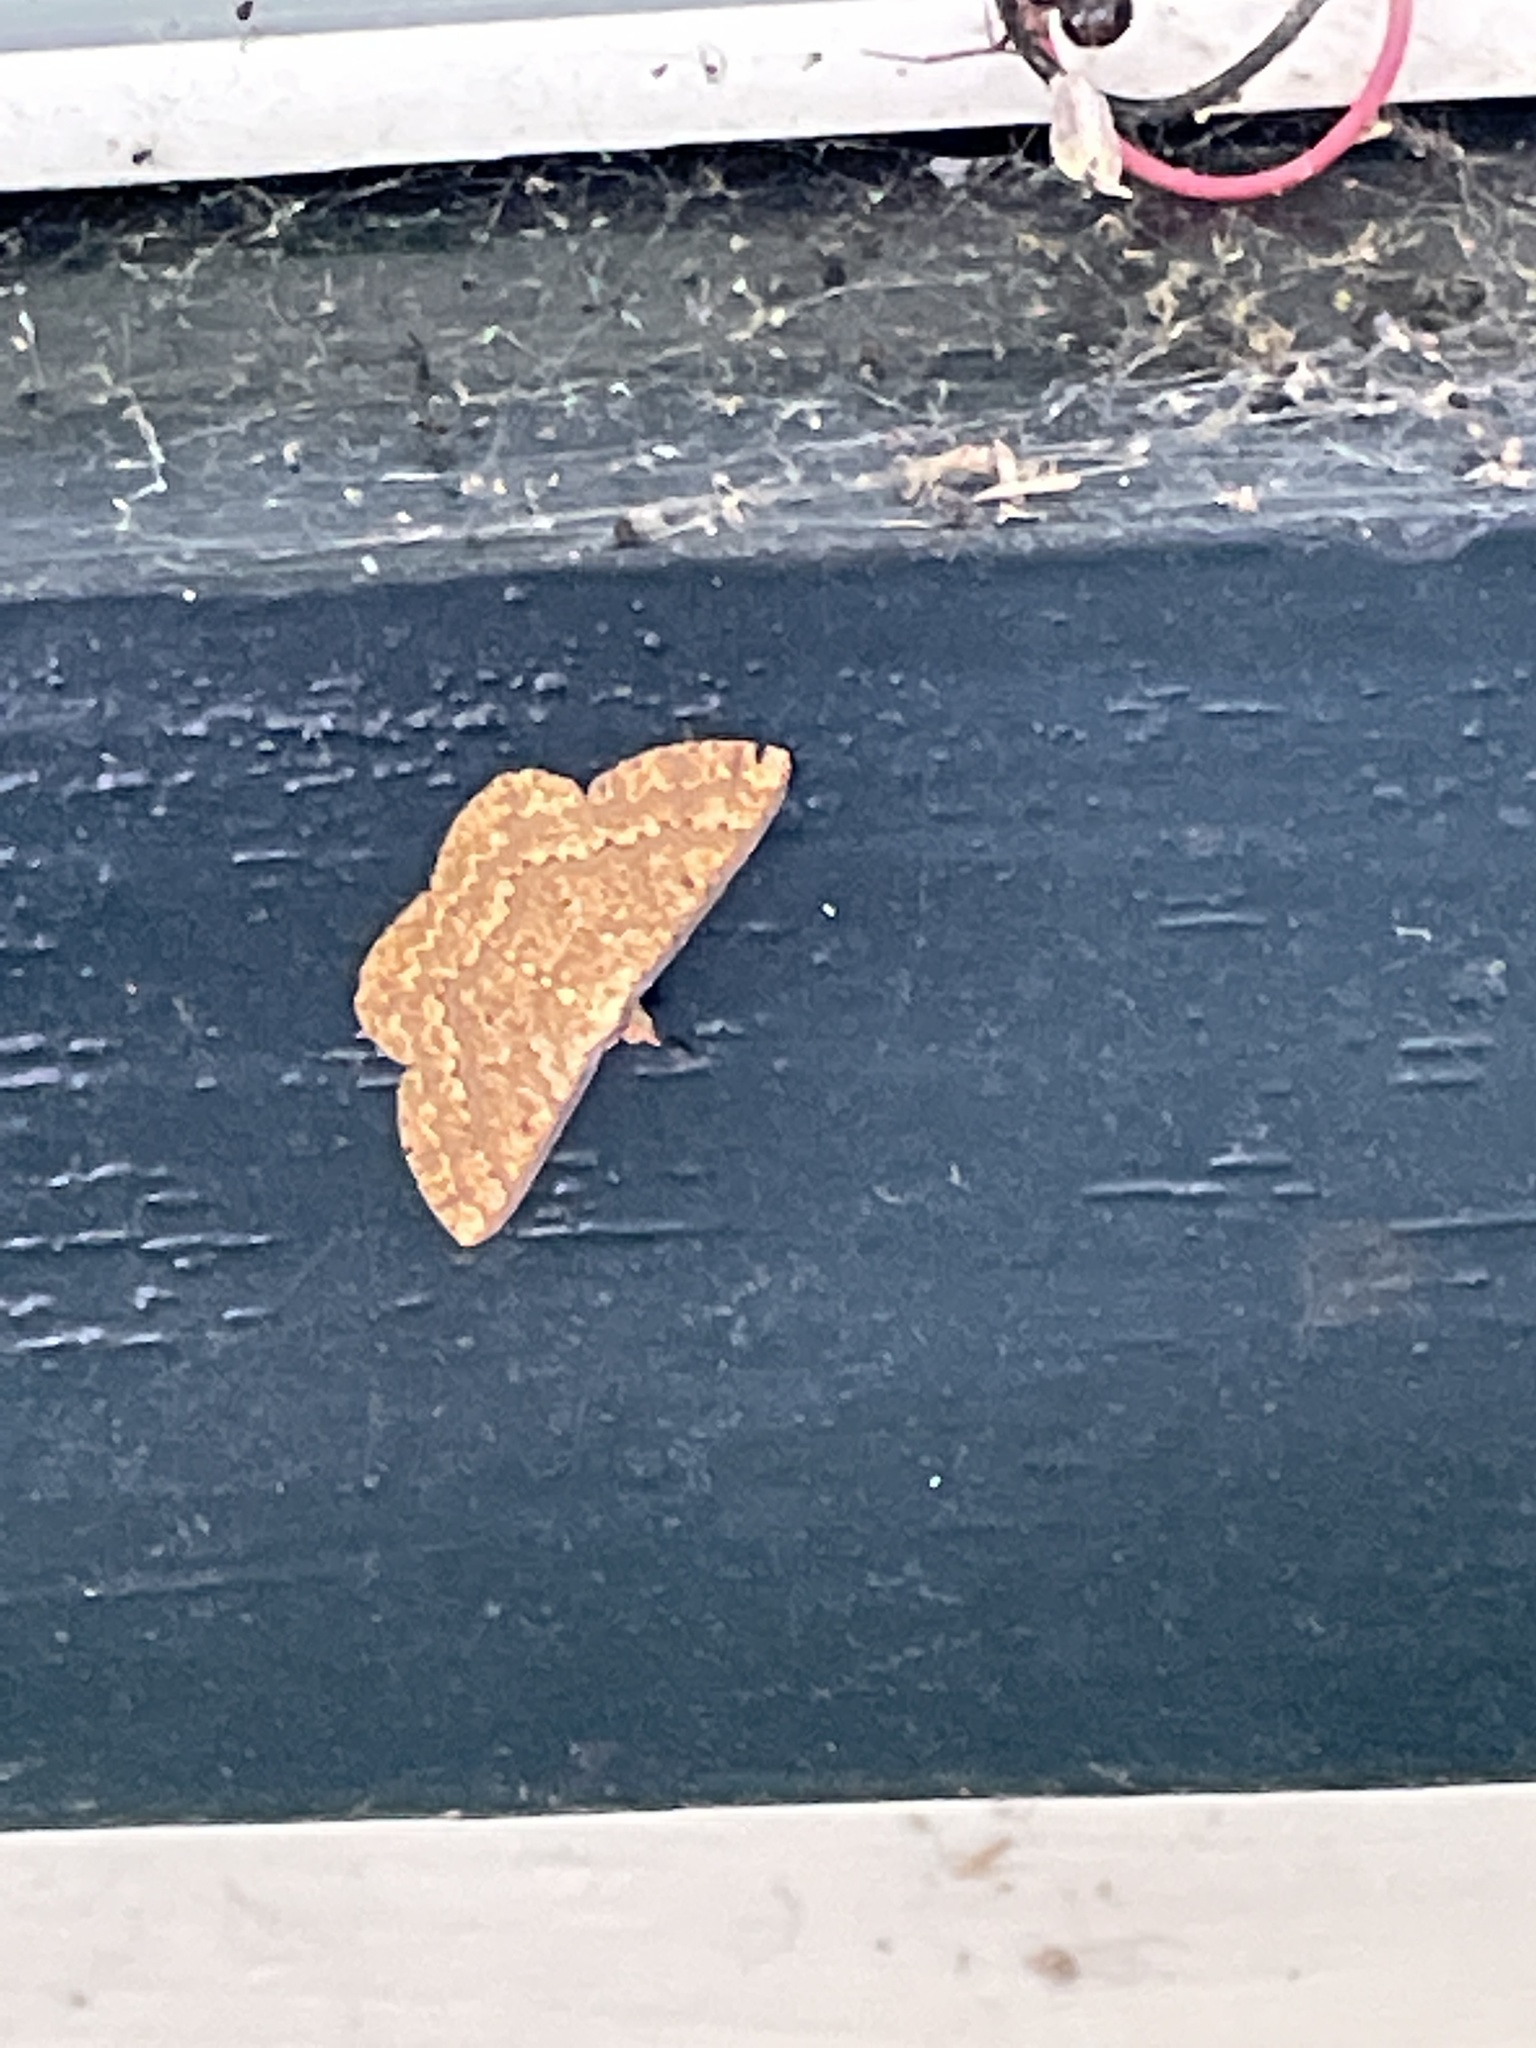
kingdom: Animalia
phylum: Arthropoda
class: Insecta
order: Lepidoptera
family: Geometridae
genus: Synegia
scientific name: Synegia imitaria
